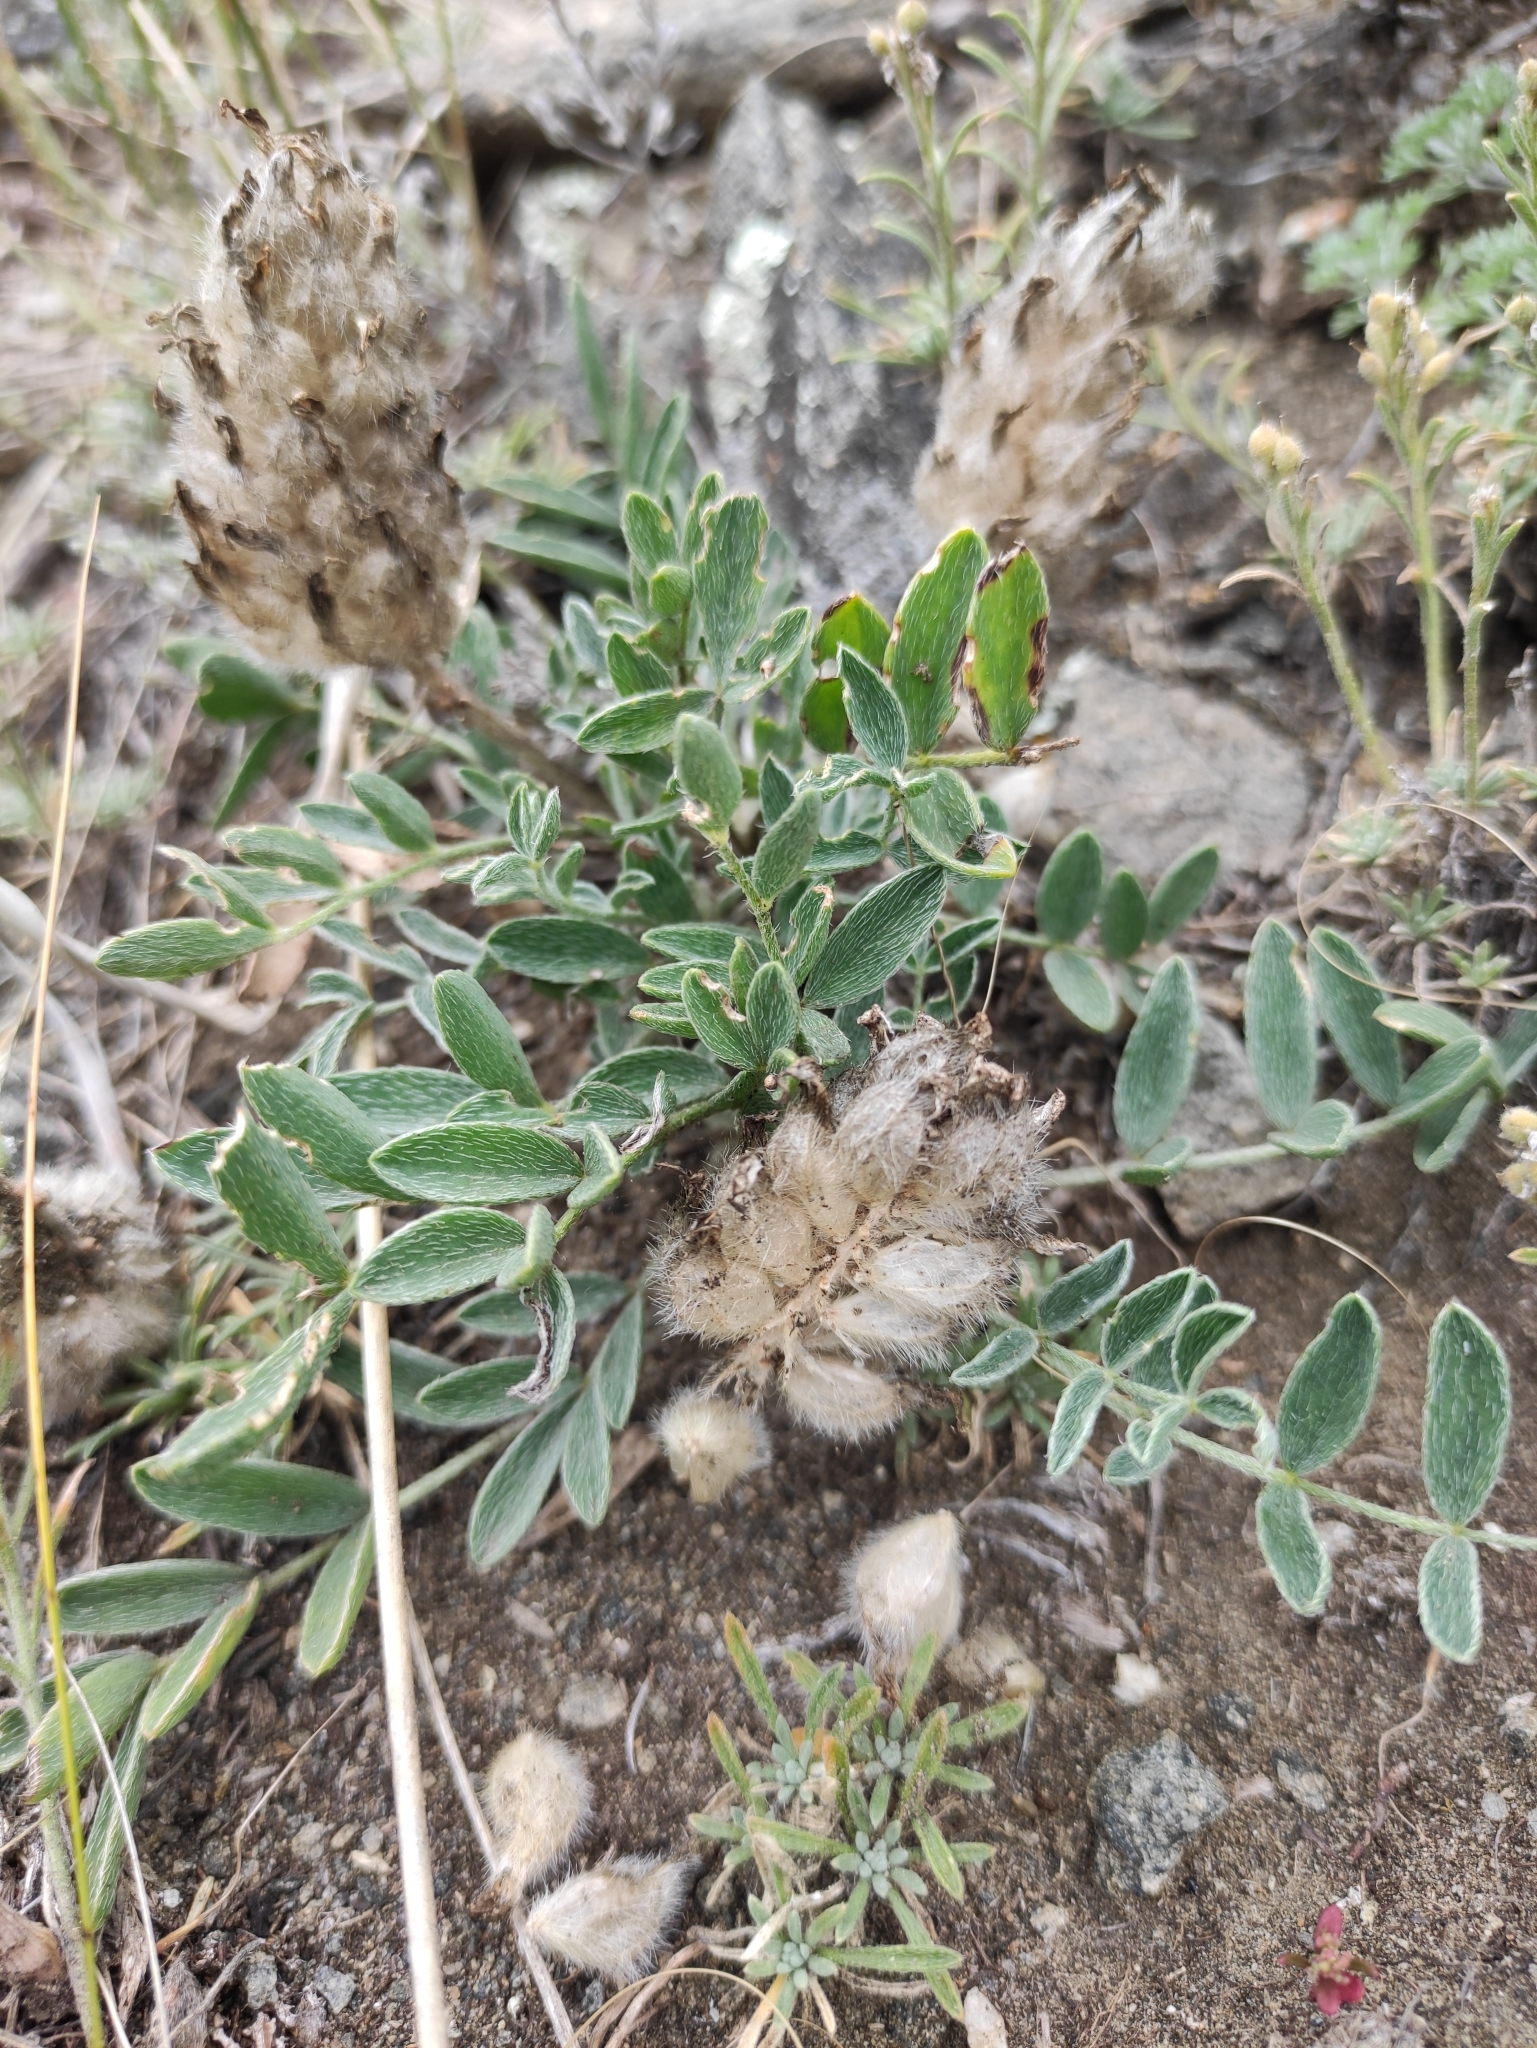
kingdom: Plantae
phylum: Tracheophyta
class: Magnoliopsida
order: Fabales
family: Fabaceae
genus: Astragalus
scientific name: Astragalus lupulinus
